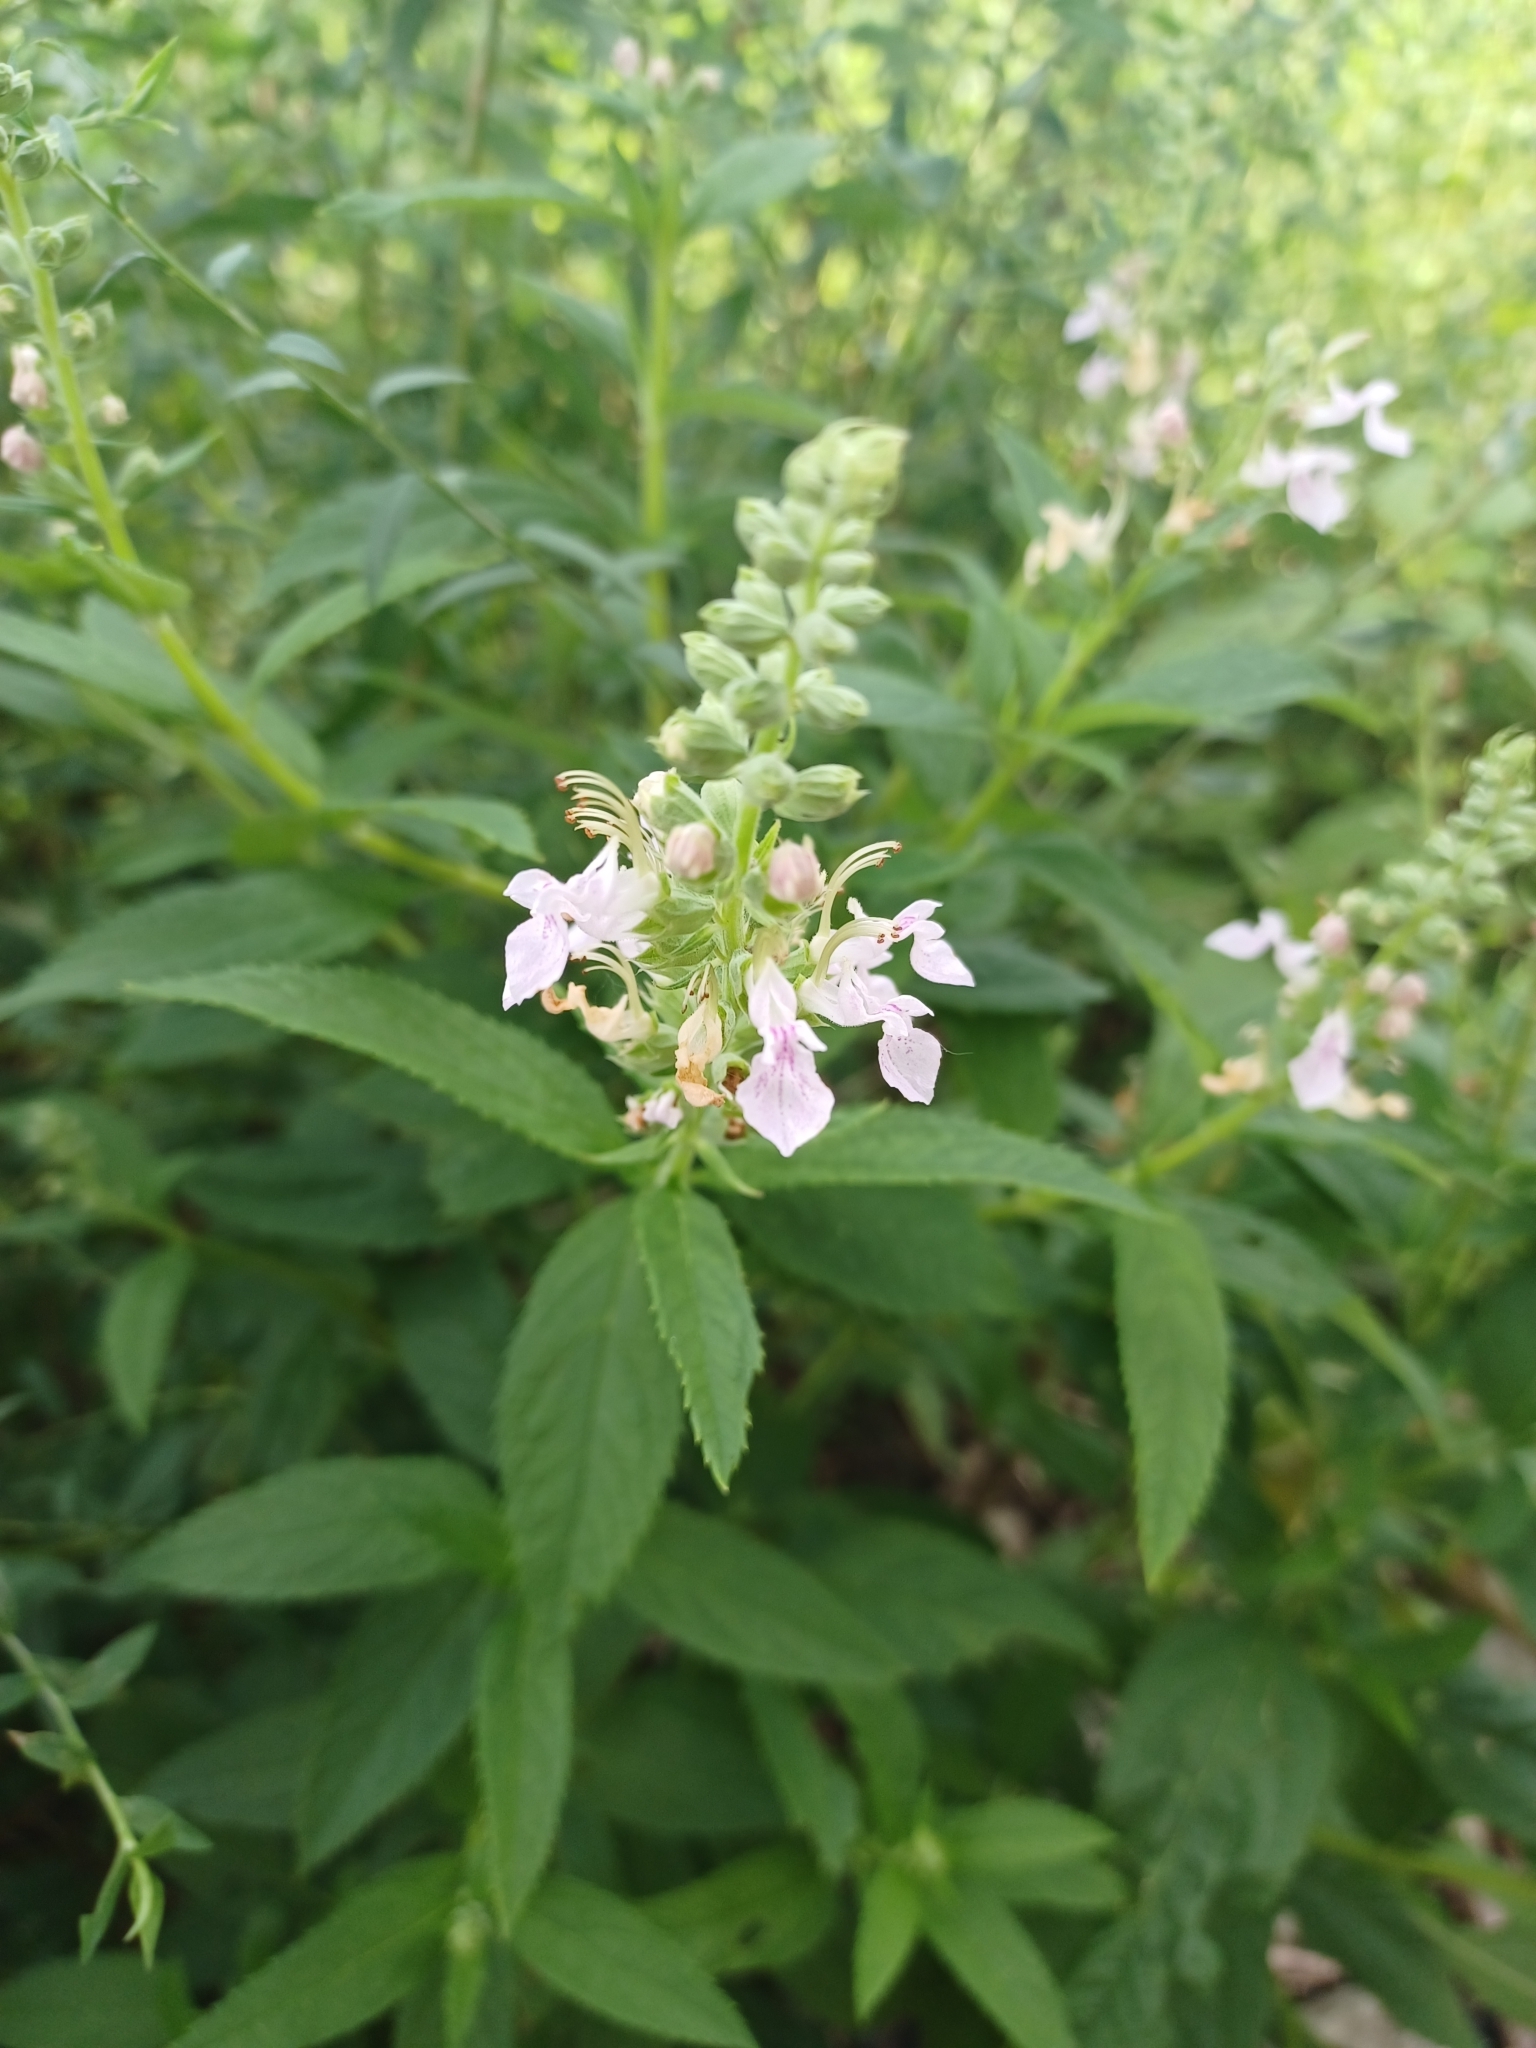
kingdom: Plantae
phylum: Tracheophyta
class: Magnoliopsida
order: Lamiales
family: Lamiaceae
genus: Teucrium
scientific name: Teucrium canadense
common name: American germander
